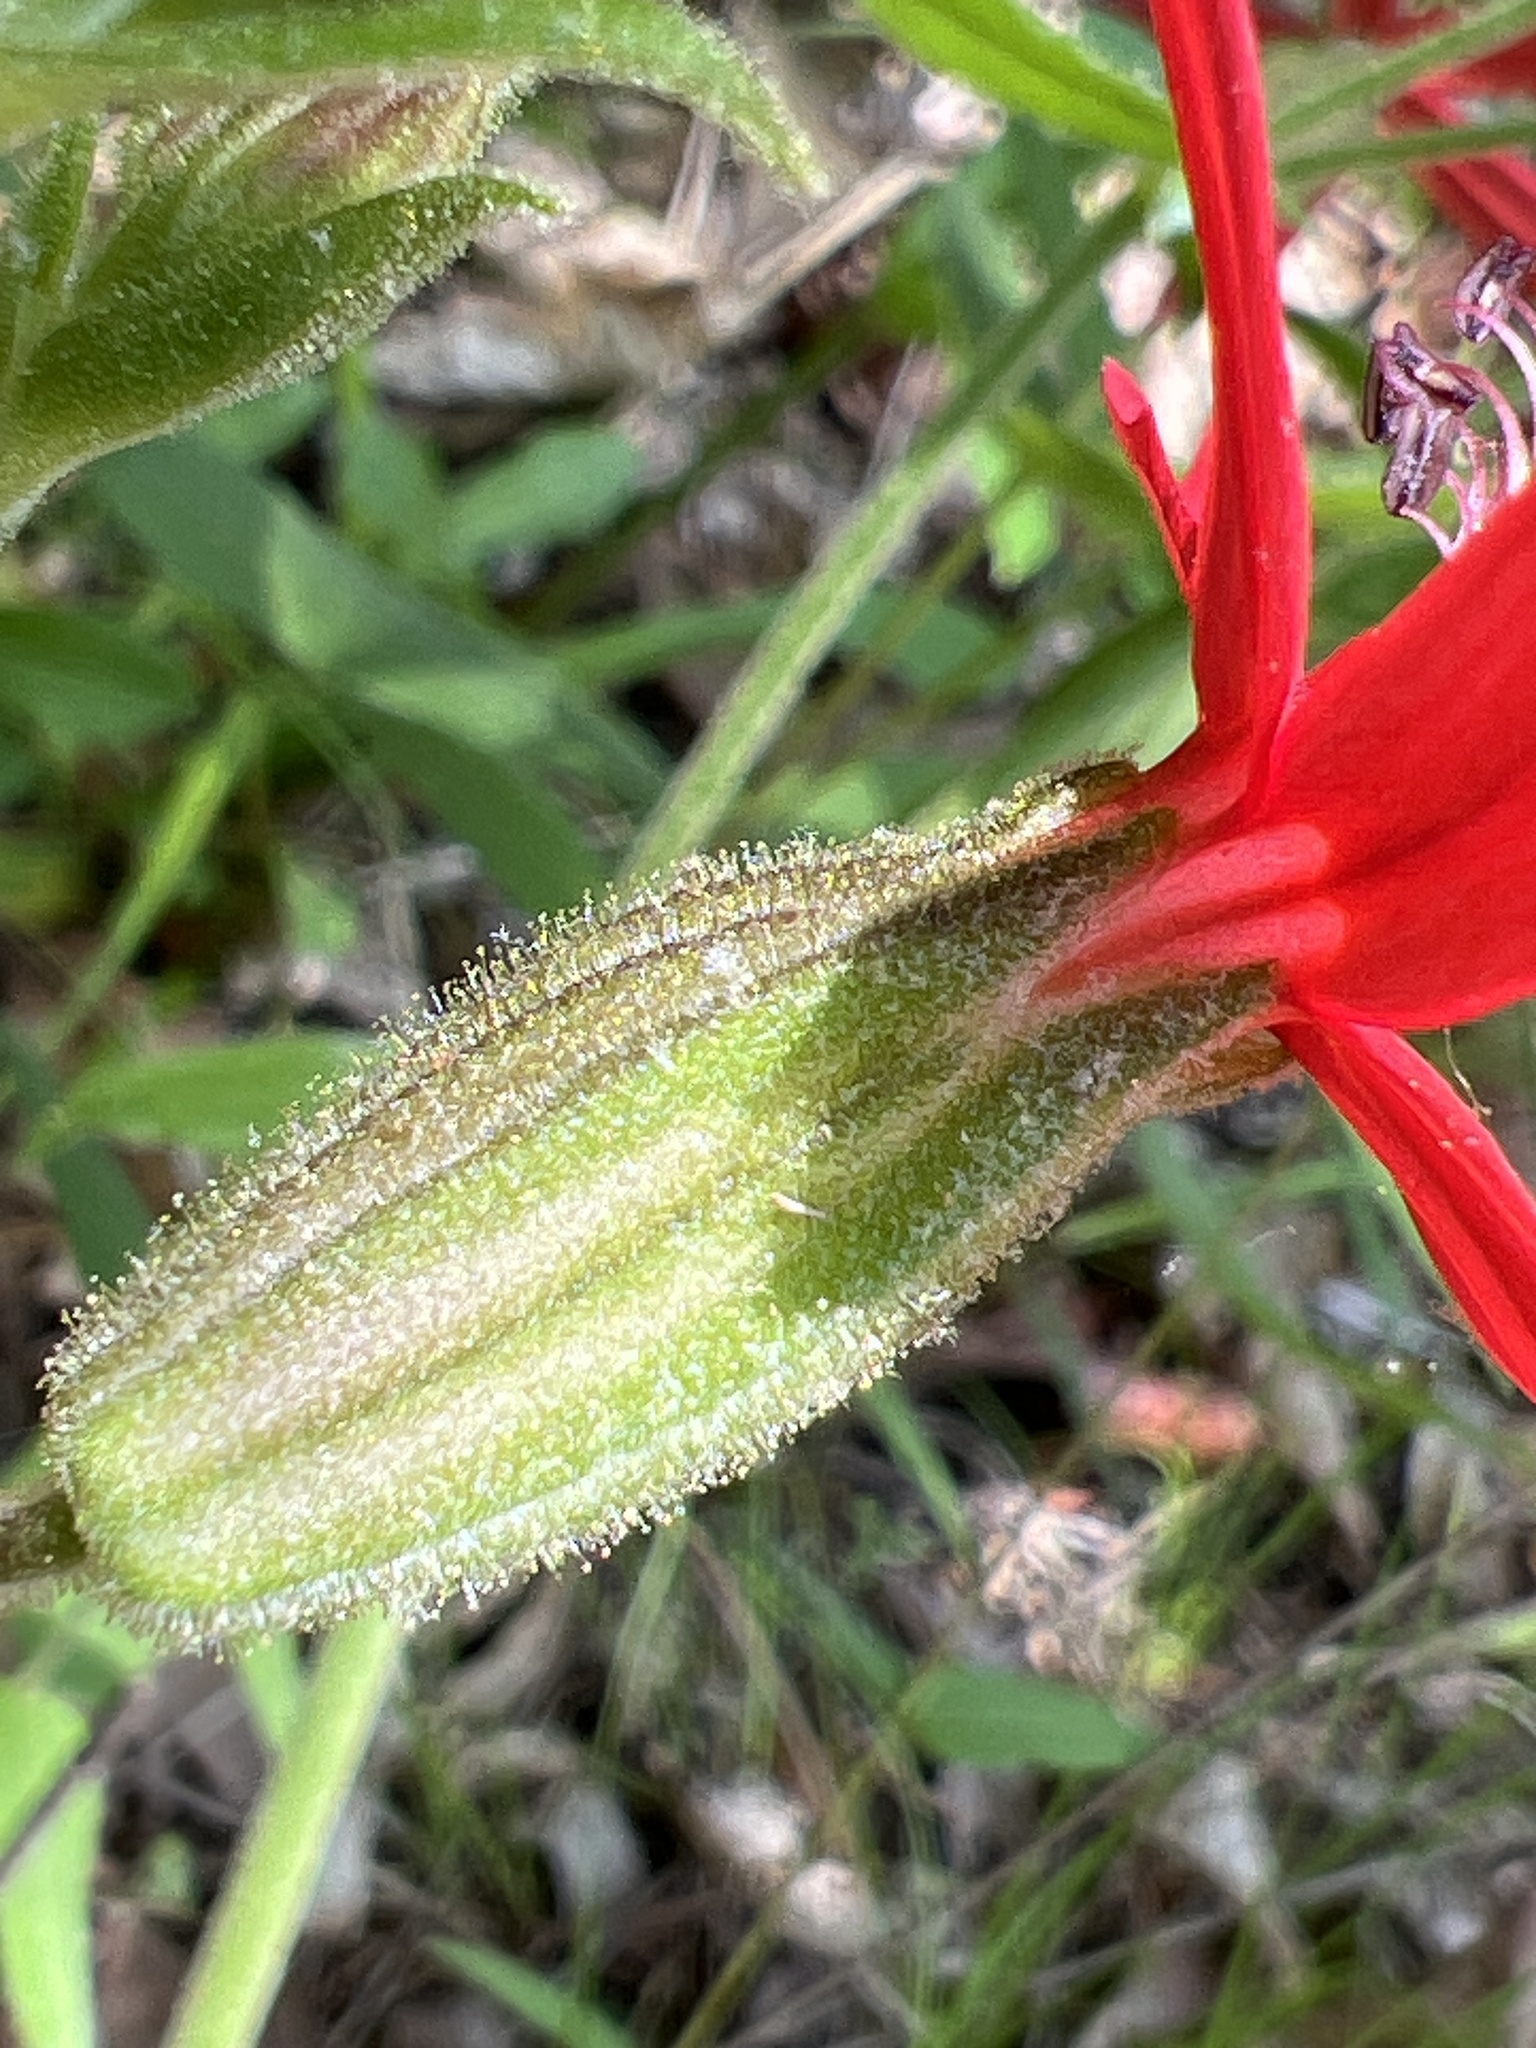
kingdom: Plantae
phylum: Tracheophyta
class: Magnoliopsida
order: Caryophyllales
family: Caryophyllaceae
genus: Silene
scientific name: Silene virginica
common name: Fire-pink
